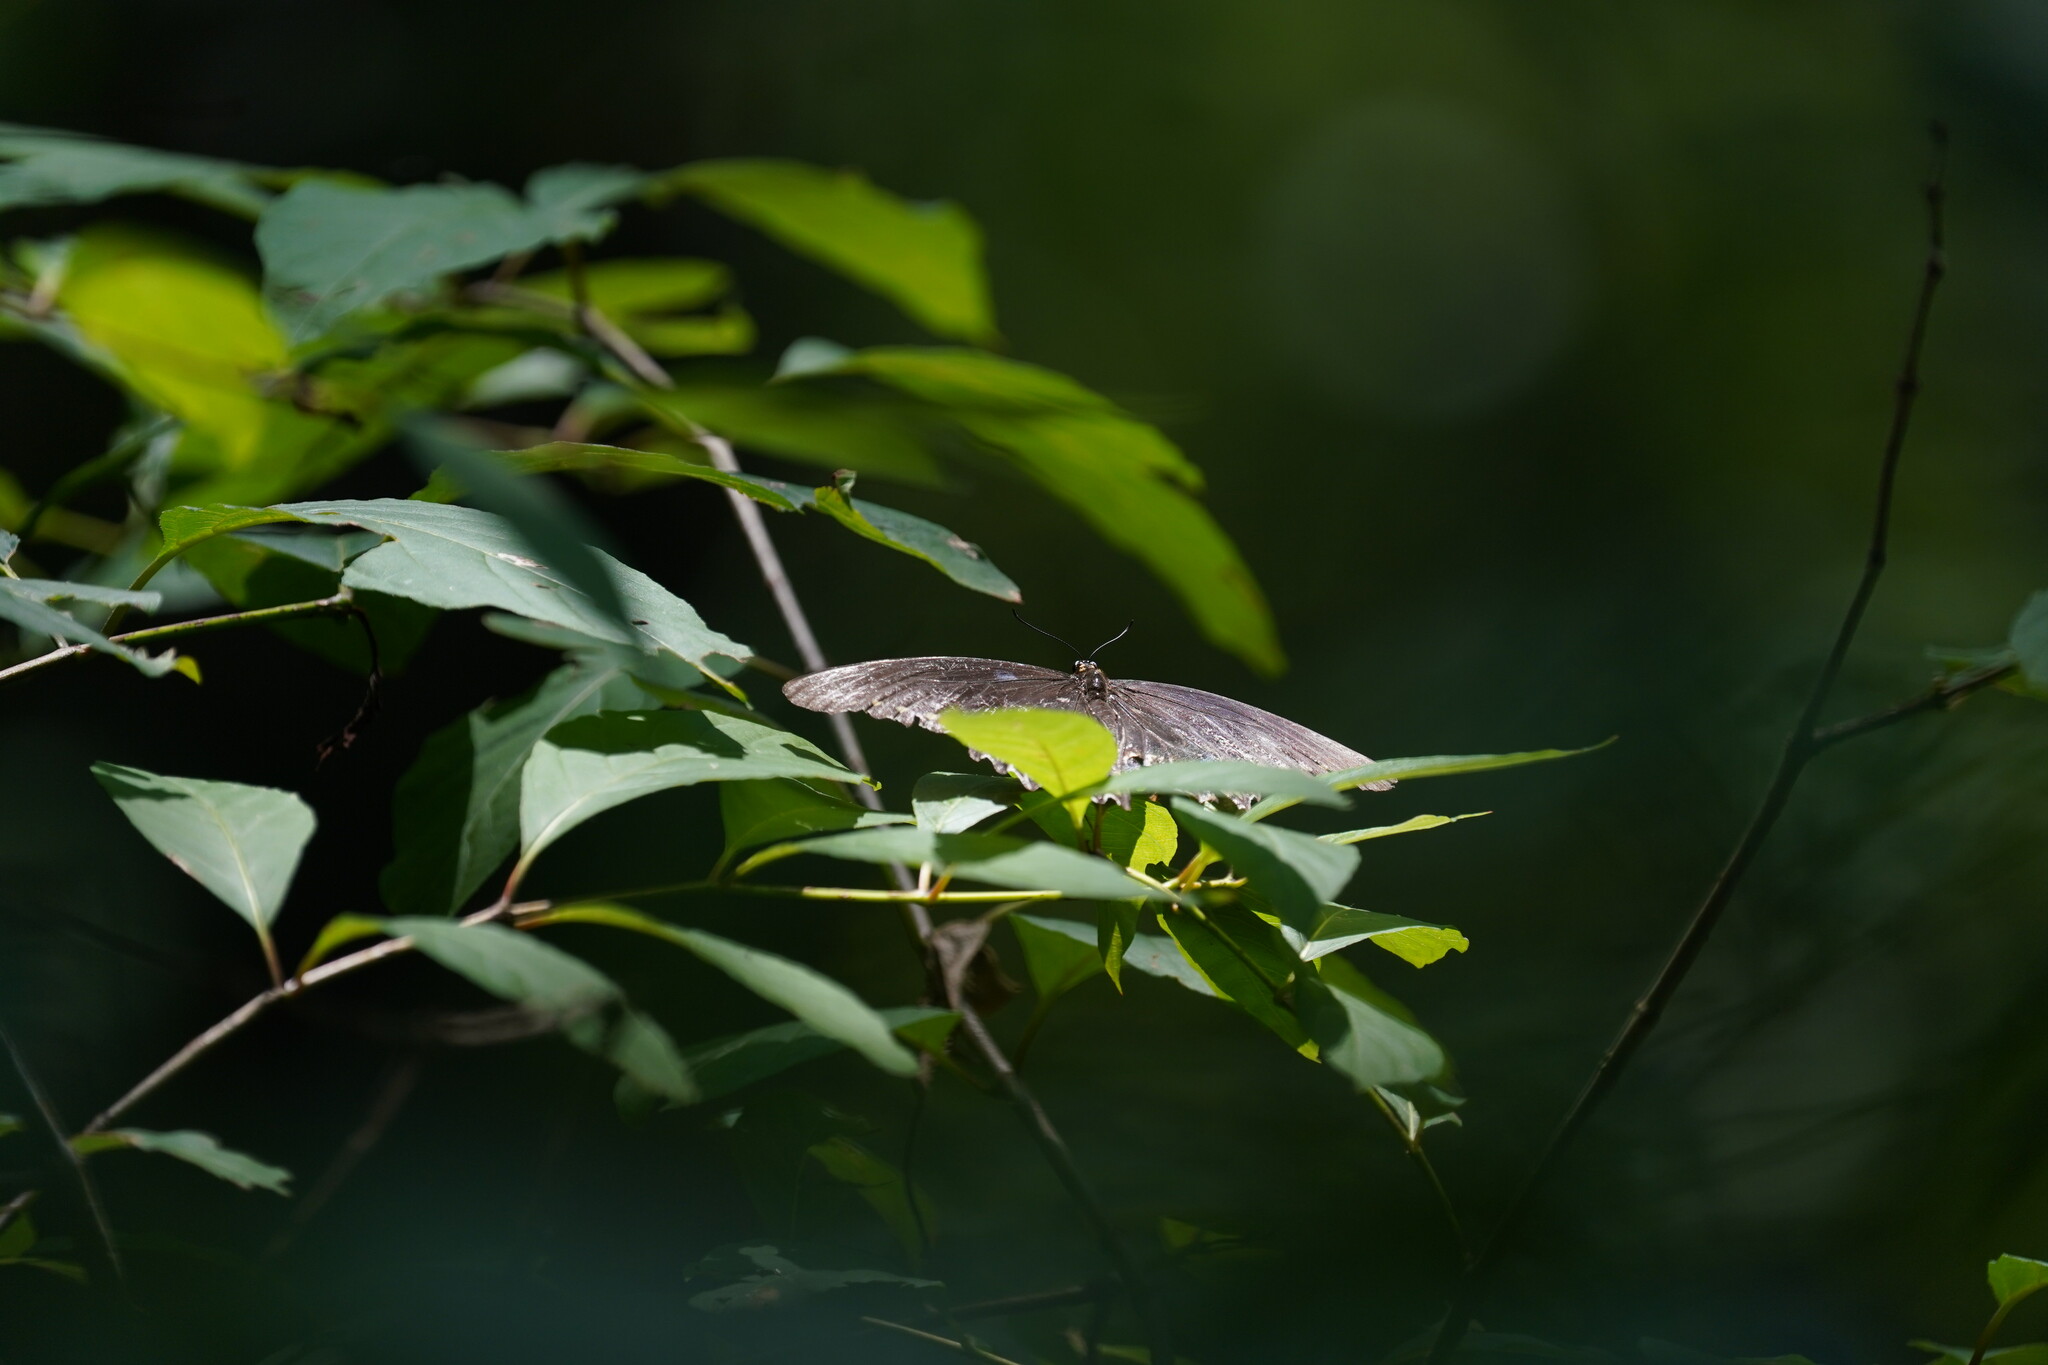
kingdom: Animalia
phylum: Arthropoda
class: Insecta
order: Lepidoptera
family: Papilionidae
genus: Papilio
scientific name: Papilio glaucus
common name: Tiger swallowtail
